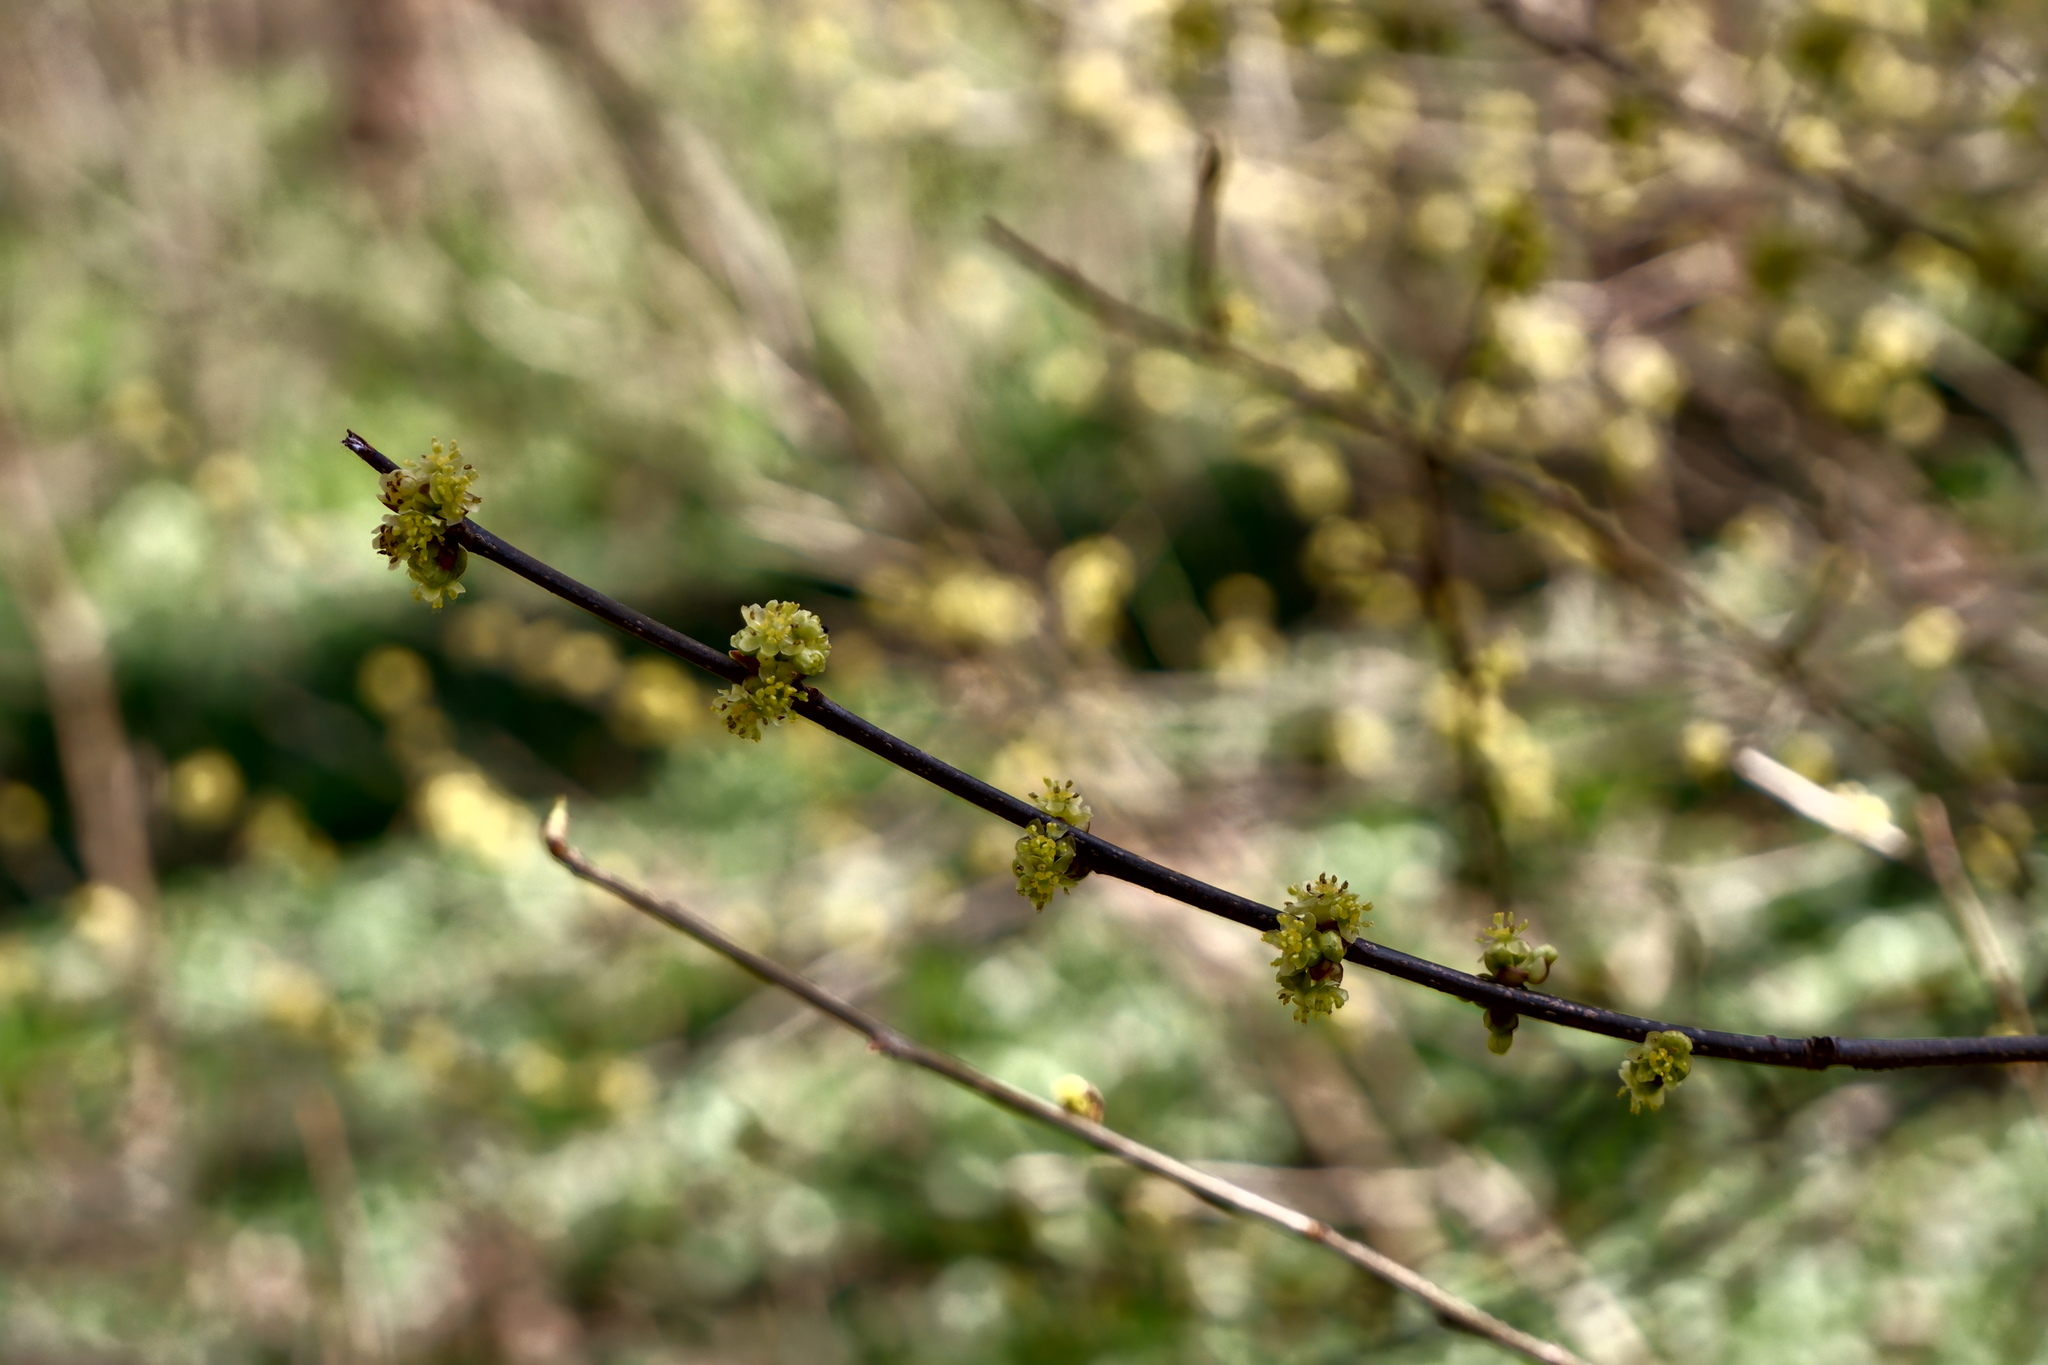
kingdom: Plantae
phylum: Tracheophyta
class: Magnoliopsida
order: Laurales
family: Lauraceae
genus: Lindera
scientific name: Lindera benzoin
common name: Spicebush
